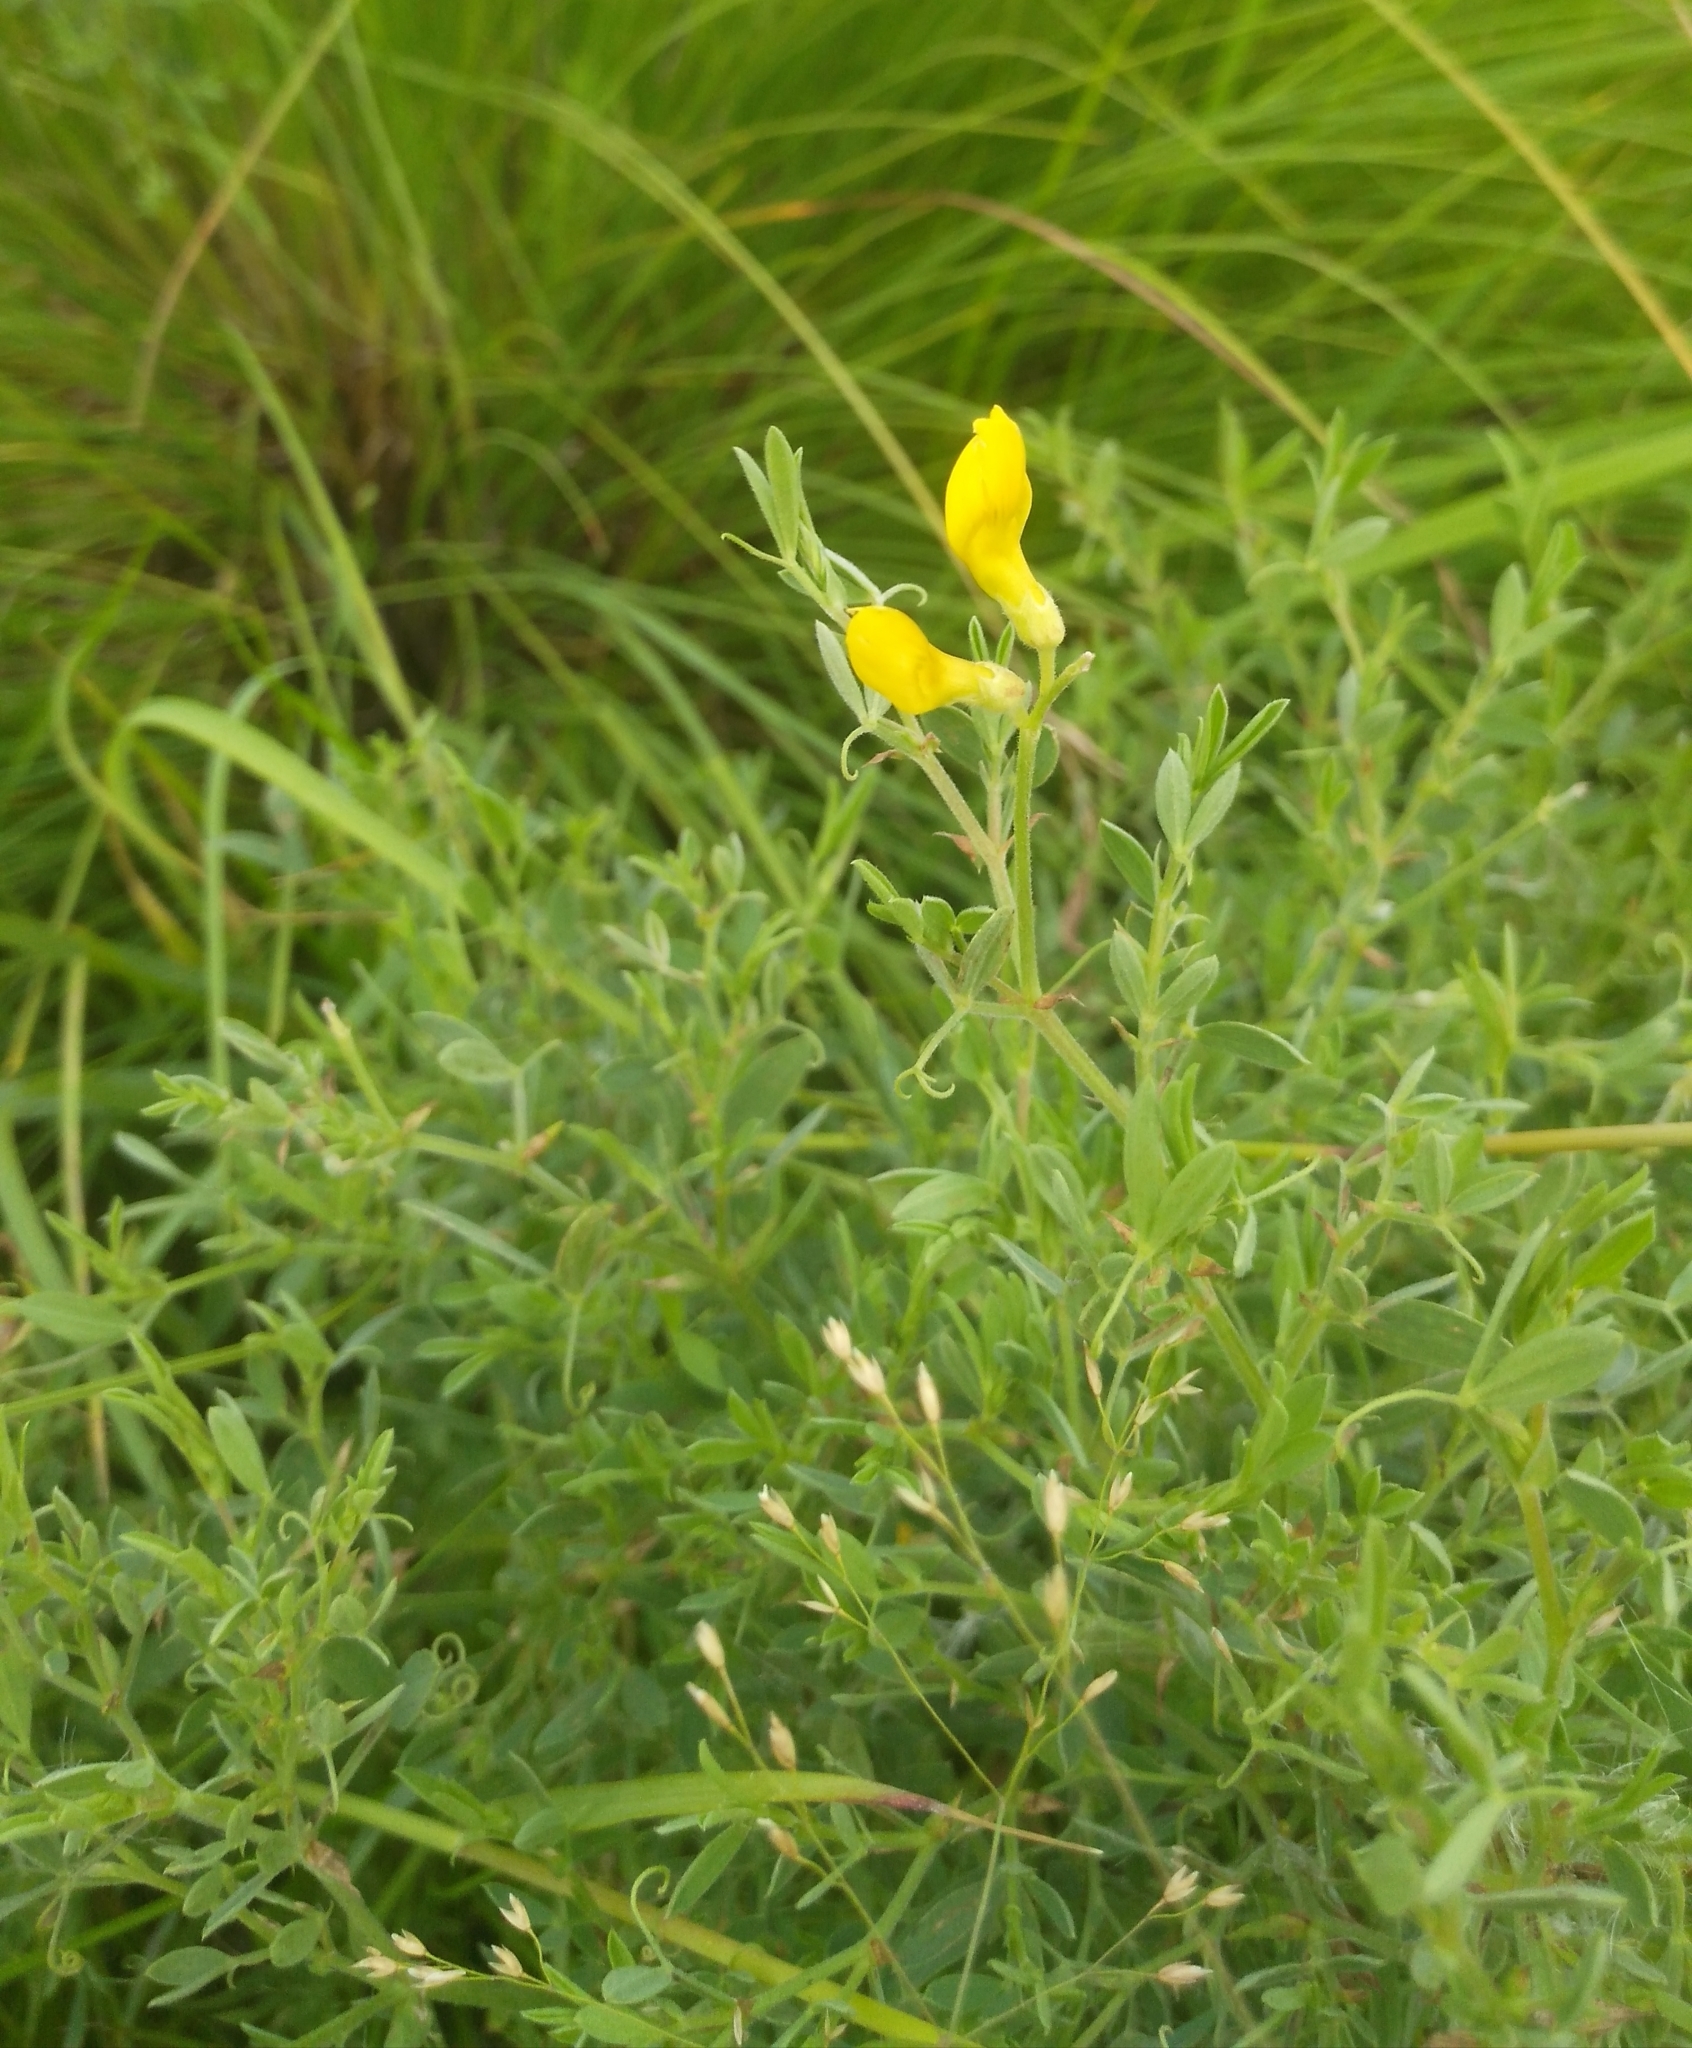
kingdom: Plantae
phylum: Tracheophyta
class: Magnoliopsida
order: Fabales
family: Fabaceae
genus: Lathyrus
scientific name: Lathyrus pratensis
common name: Meadow vetchling
